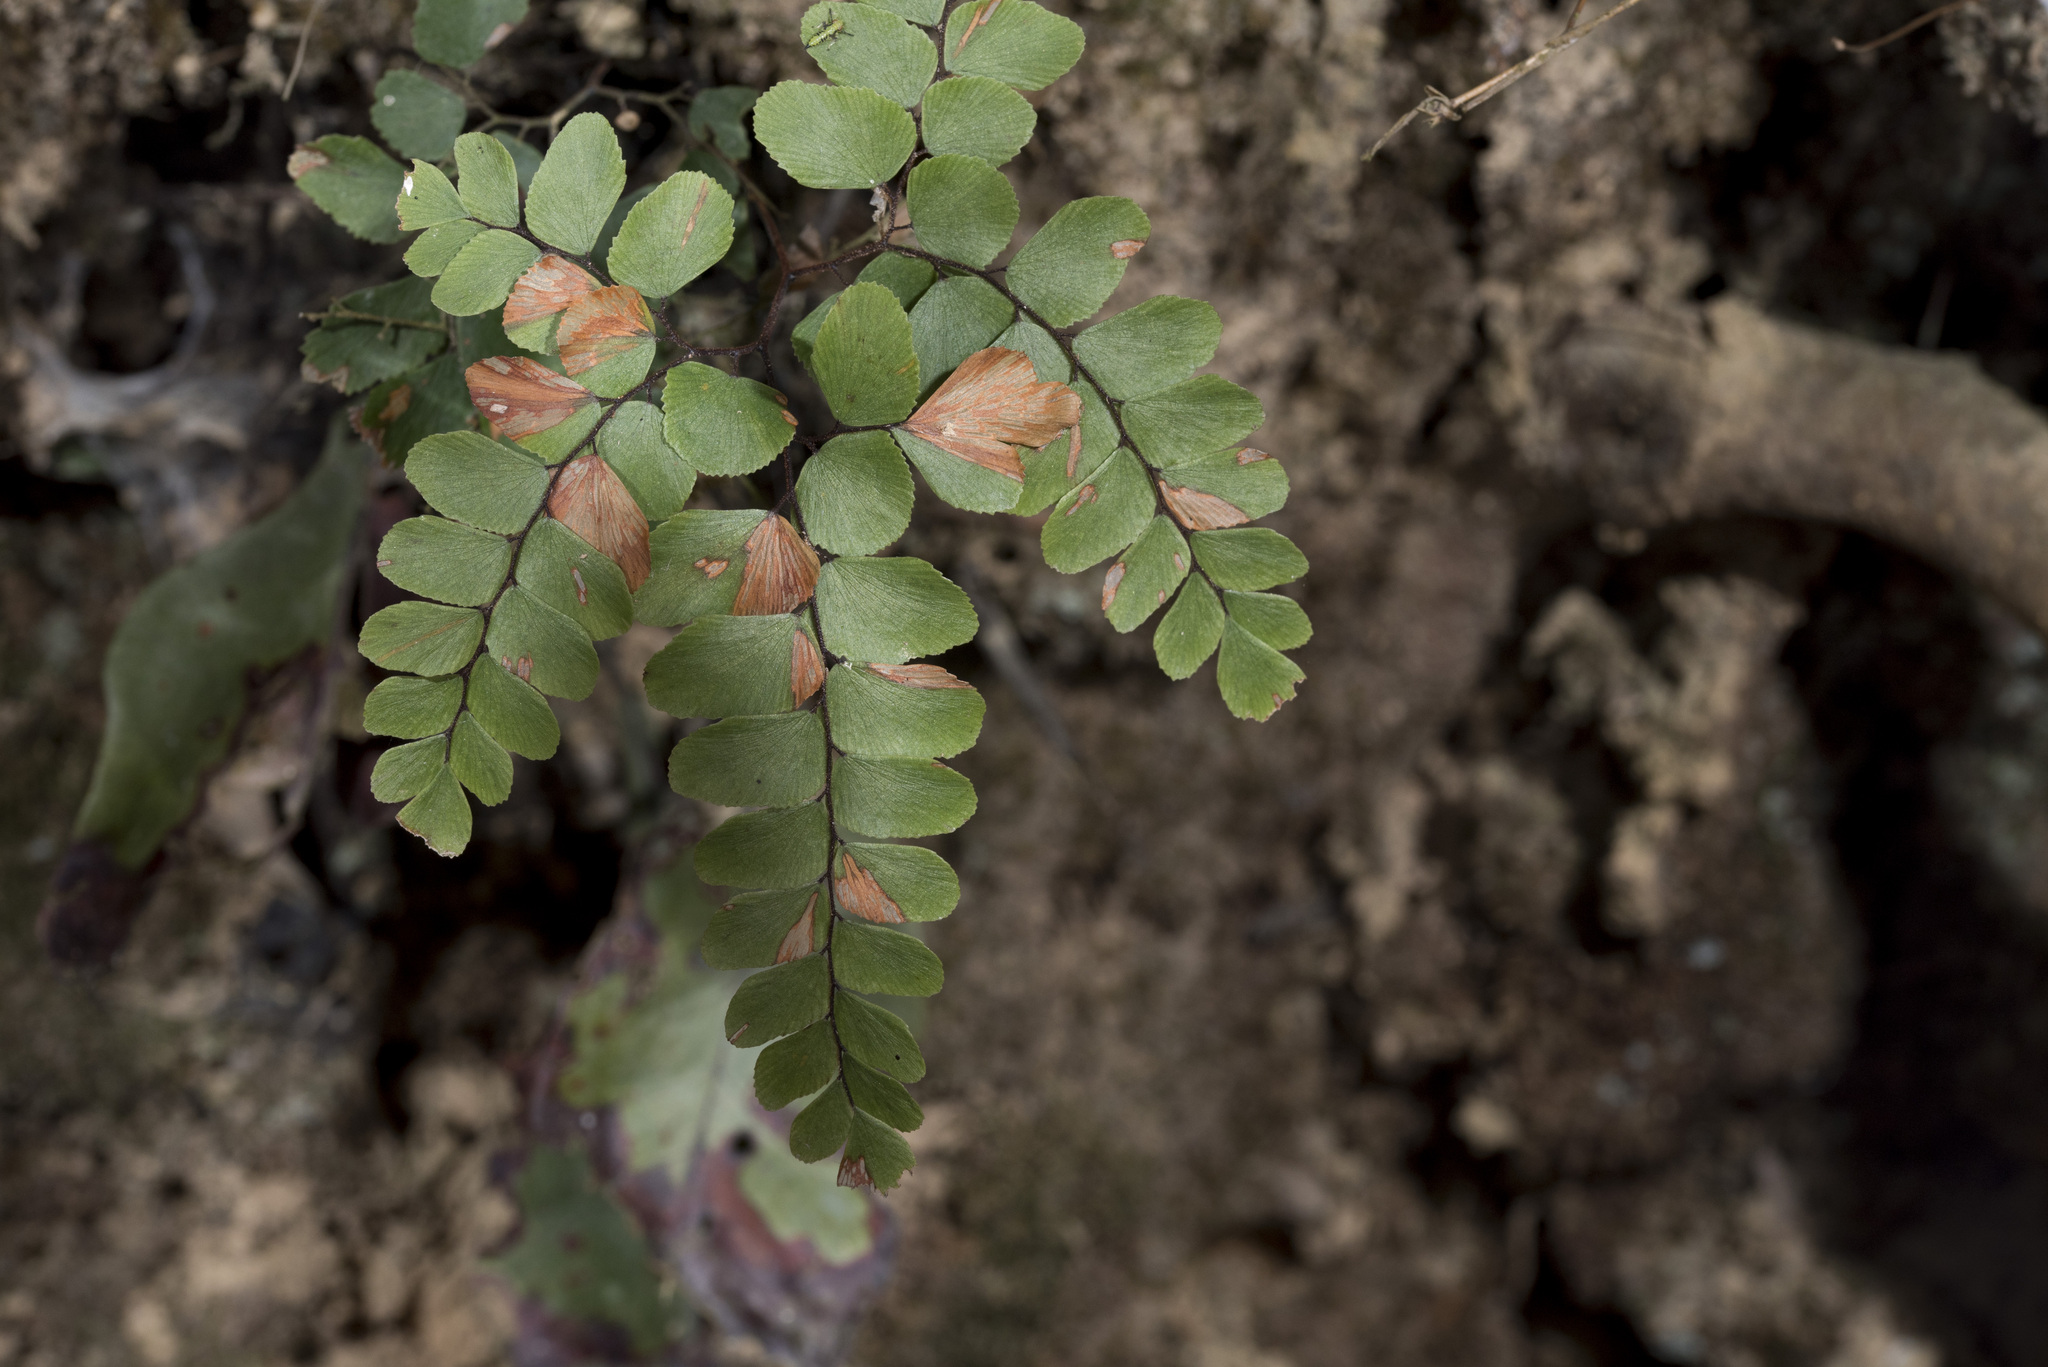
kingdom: Plantae
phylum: Tracheophyta
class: Polypodiopsida
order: Polypodiales
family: Pteridaceae
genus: Adiantum
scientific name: Adiantum flabellulatum
